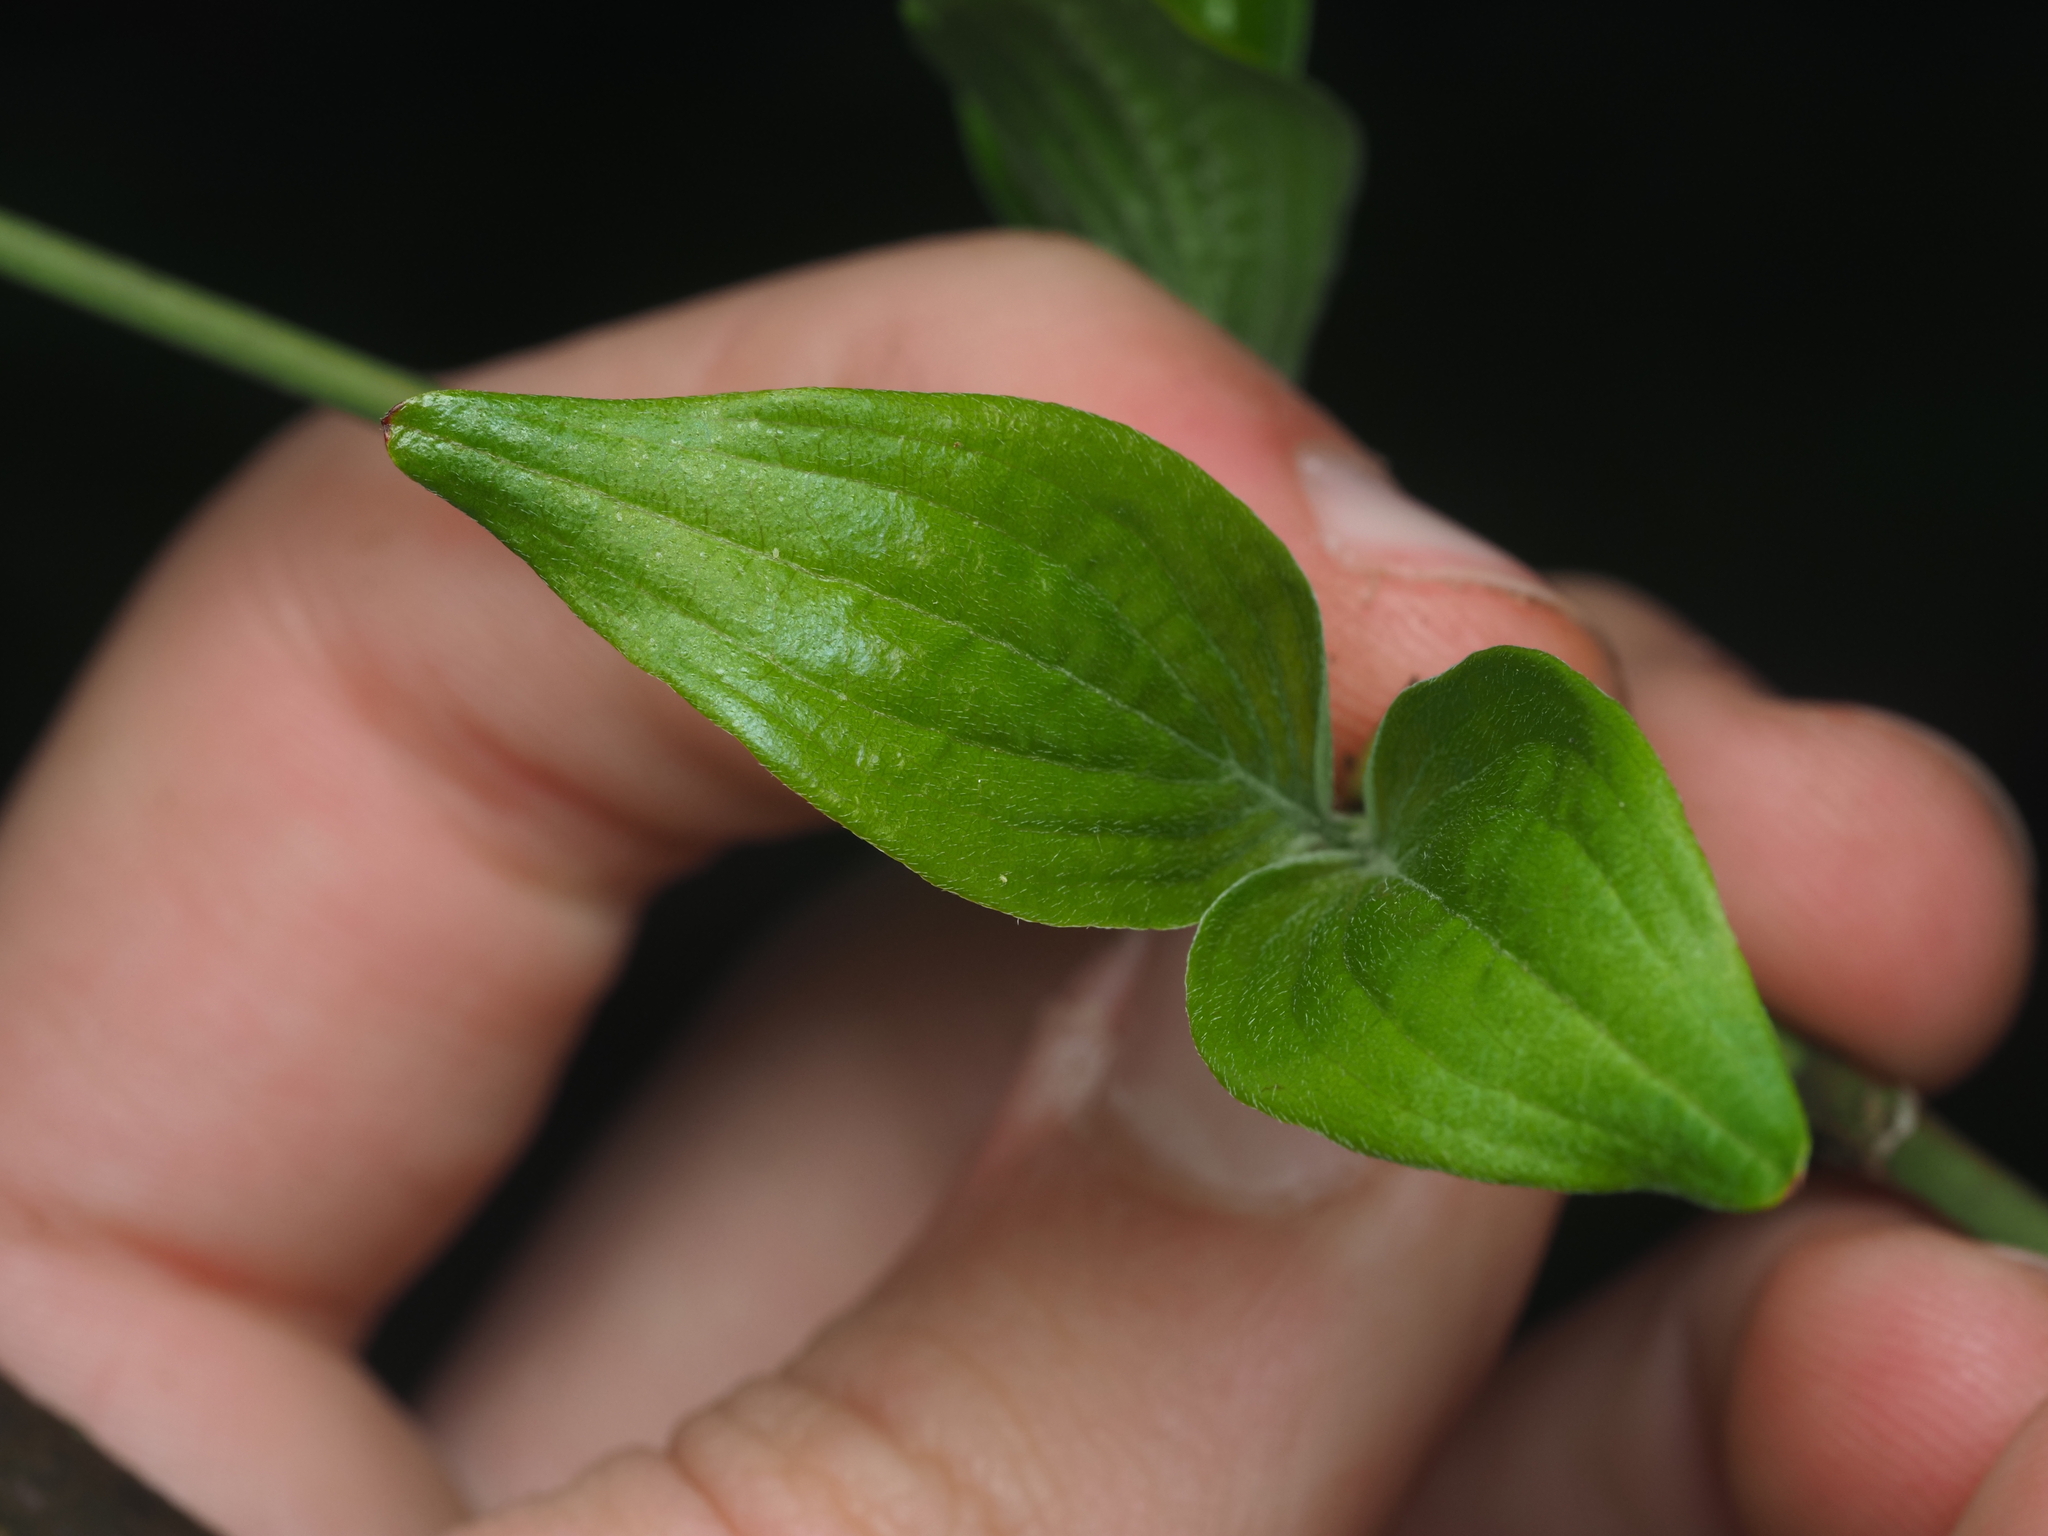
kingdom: Plantae
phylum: Tracheophyta
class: Magnoliopsida
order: Cornales
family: Cornaceae
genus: Cornus
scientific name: Cornus mas
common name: Cornelian-cherry
